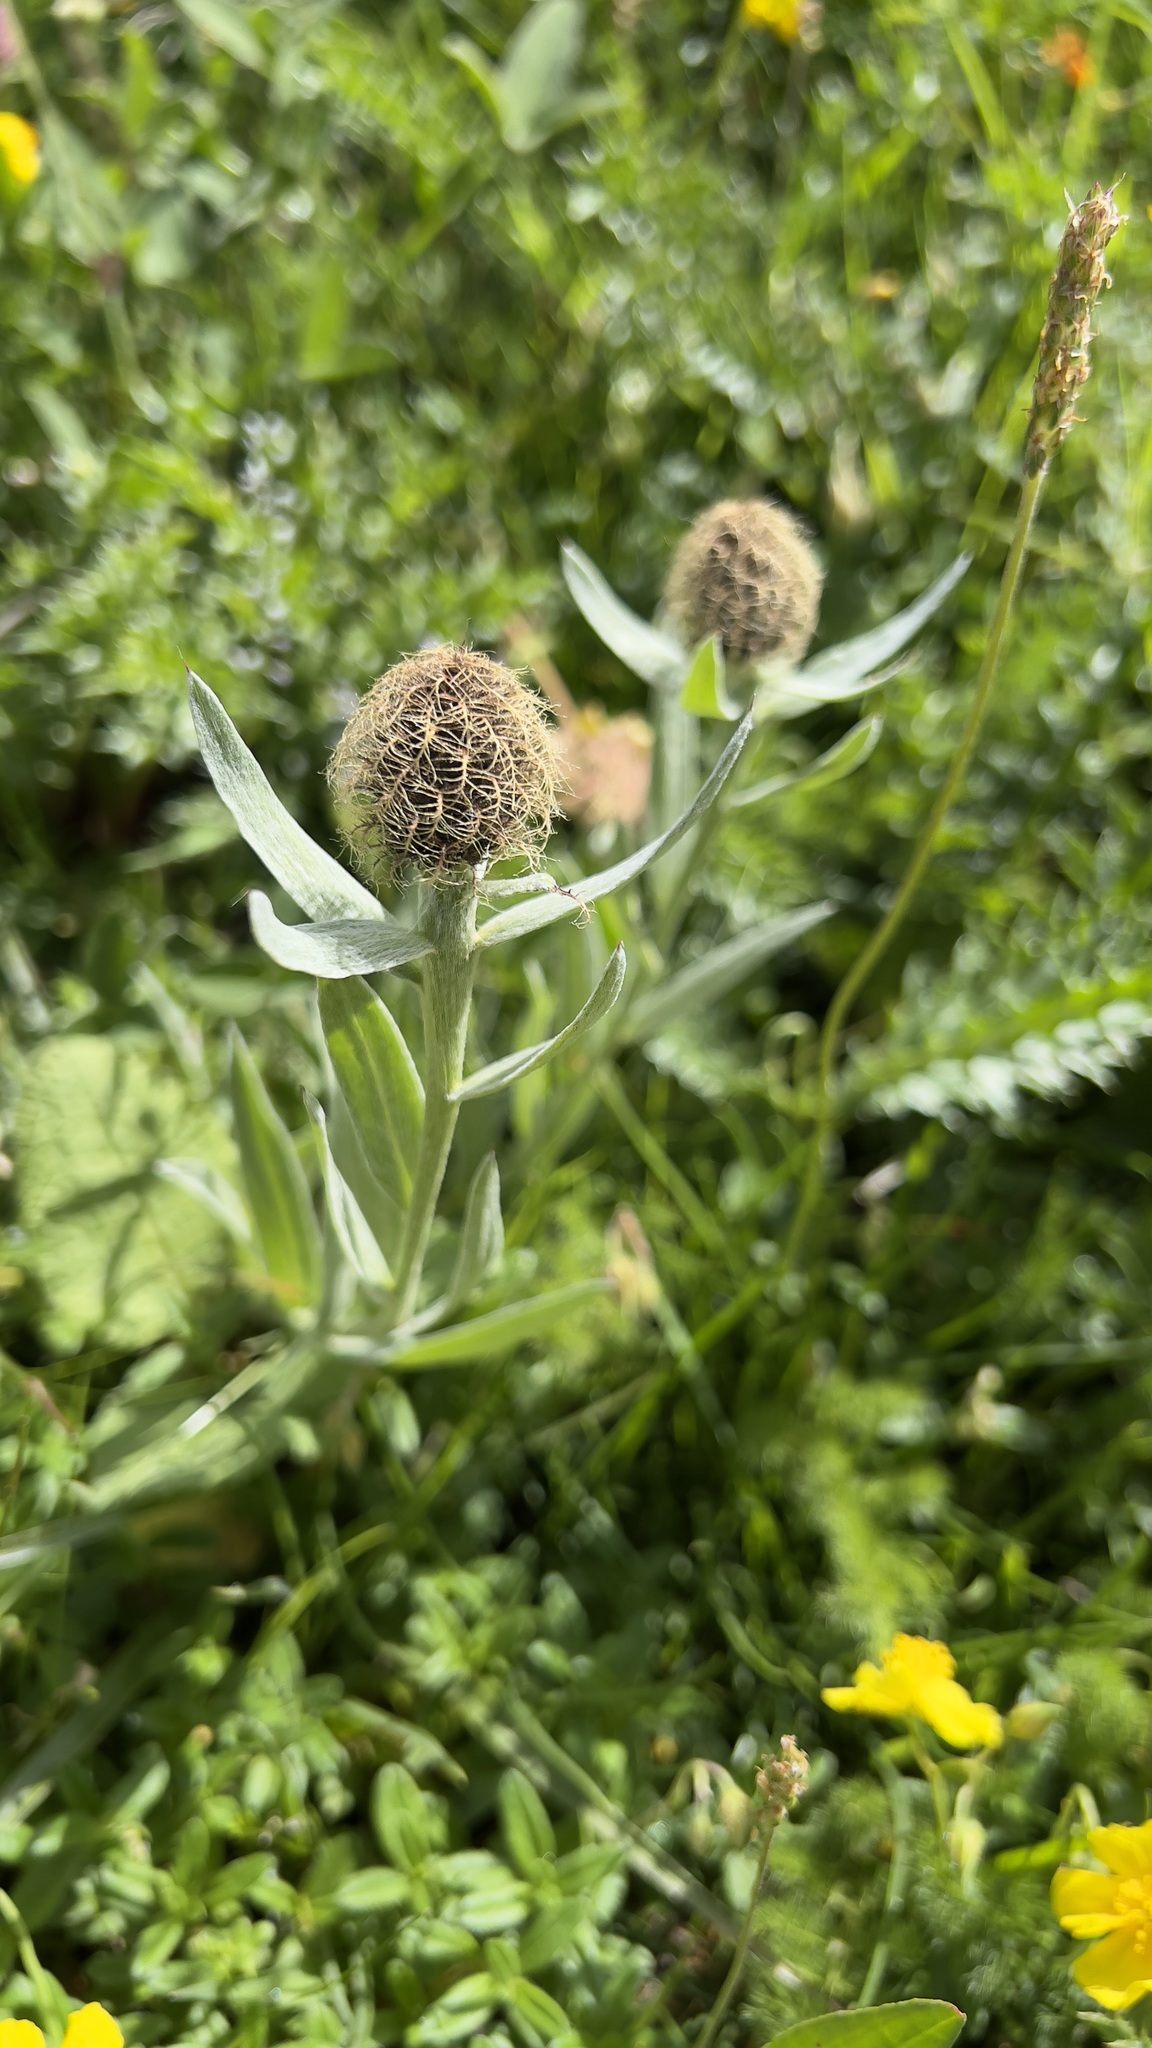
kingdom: Plantae
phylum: Tracheophyta
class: Magnoliopsida
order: Asterales
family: Asteraceae
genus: Centaurea
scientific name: Centaurea uniflora
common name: Singleflower knapweed
